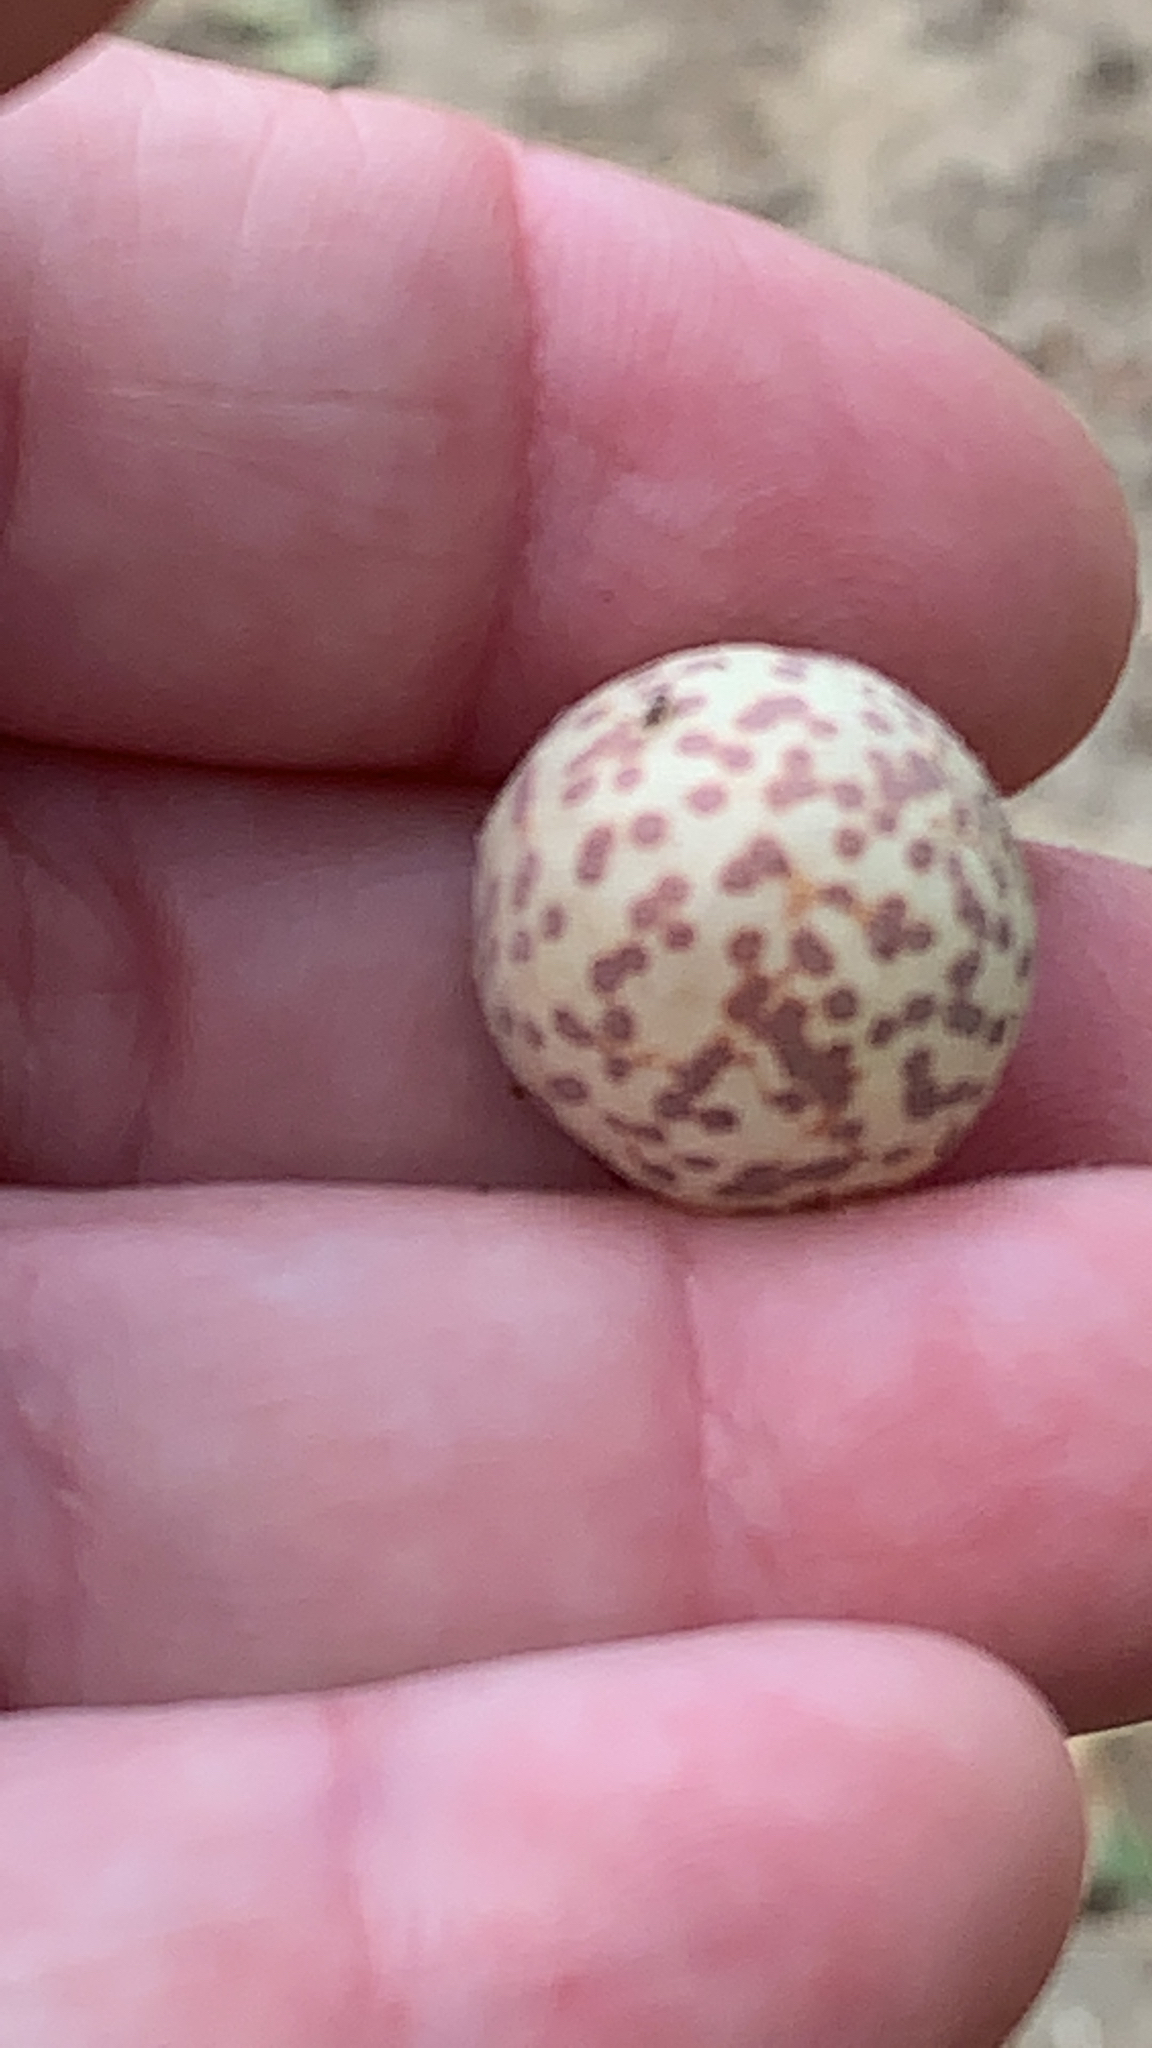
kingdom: Animalia
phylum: Arthropoda
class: Insecta
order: Hymenoptera
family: Cynipidae
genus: Cynips
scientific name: Cynips
